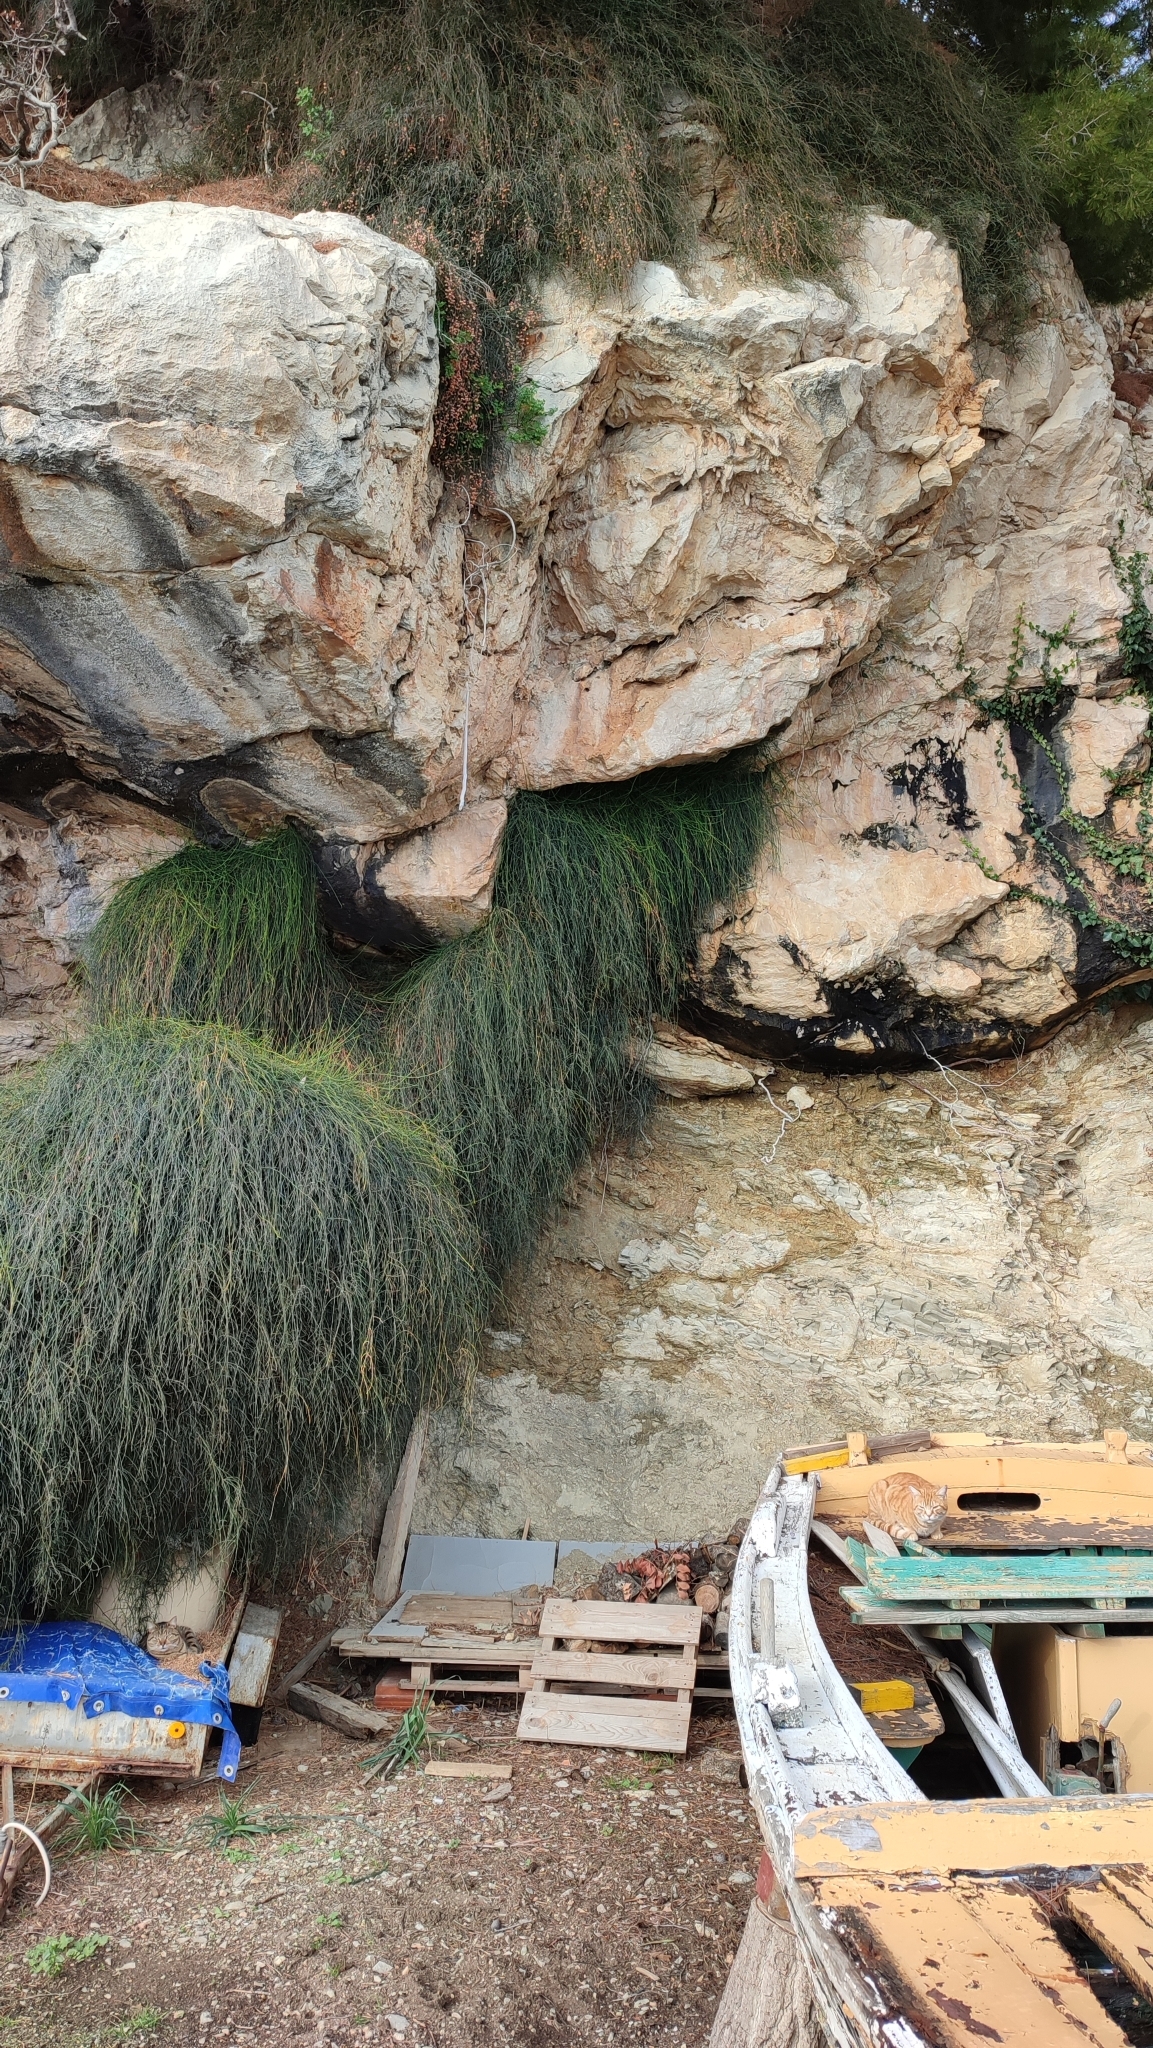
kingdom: Plantae
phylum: Tracheophyta
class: Gnetopsida
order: Ephedrales
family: Ephedraceae
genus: Ephedra
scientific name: Ephedra foeminea
